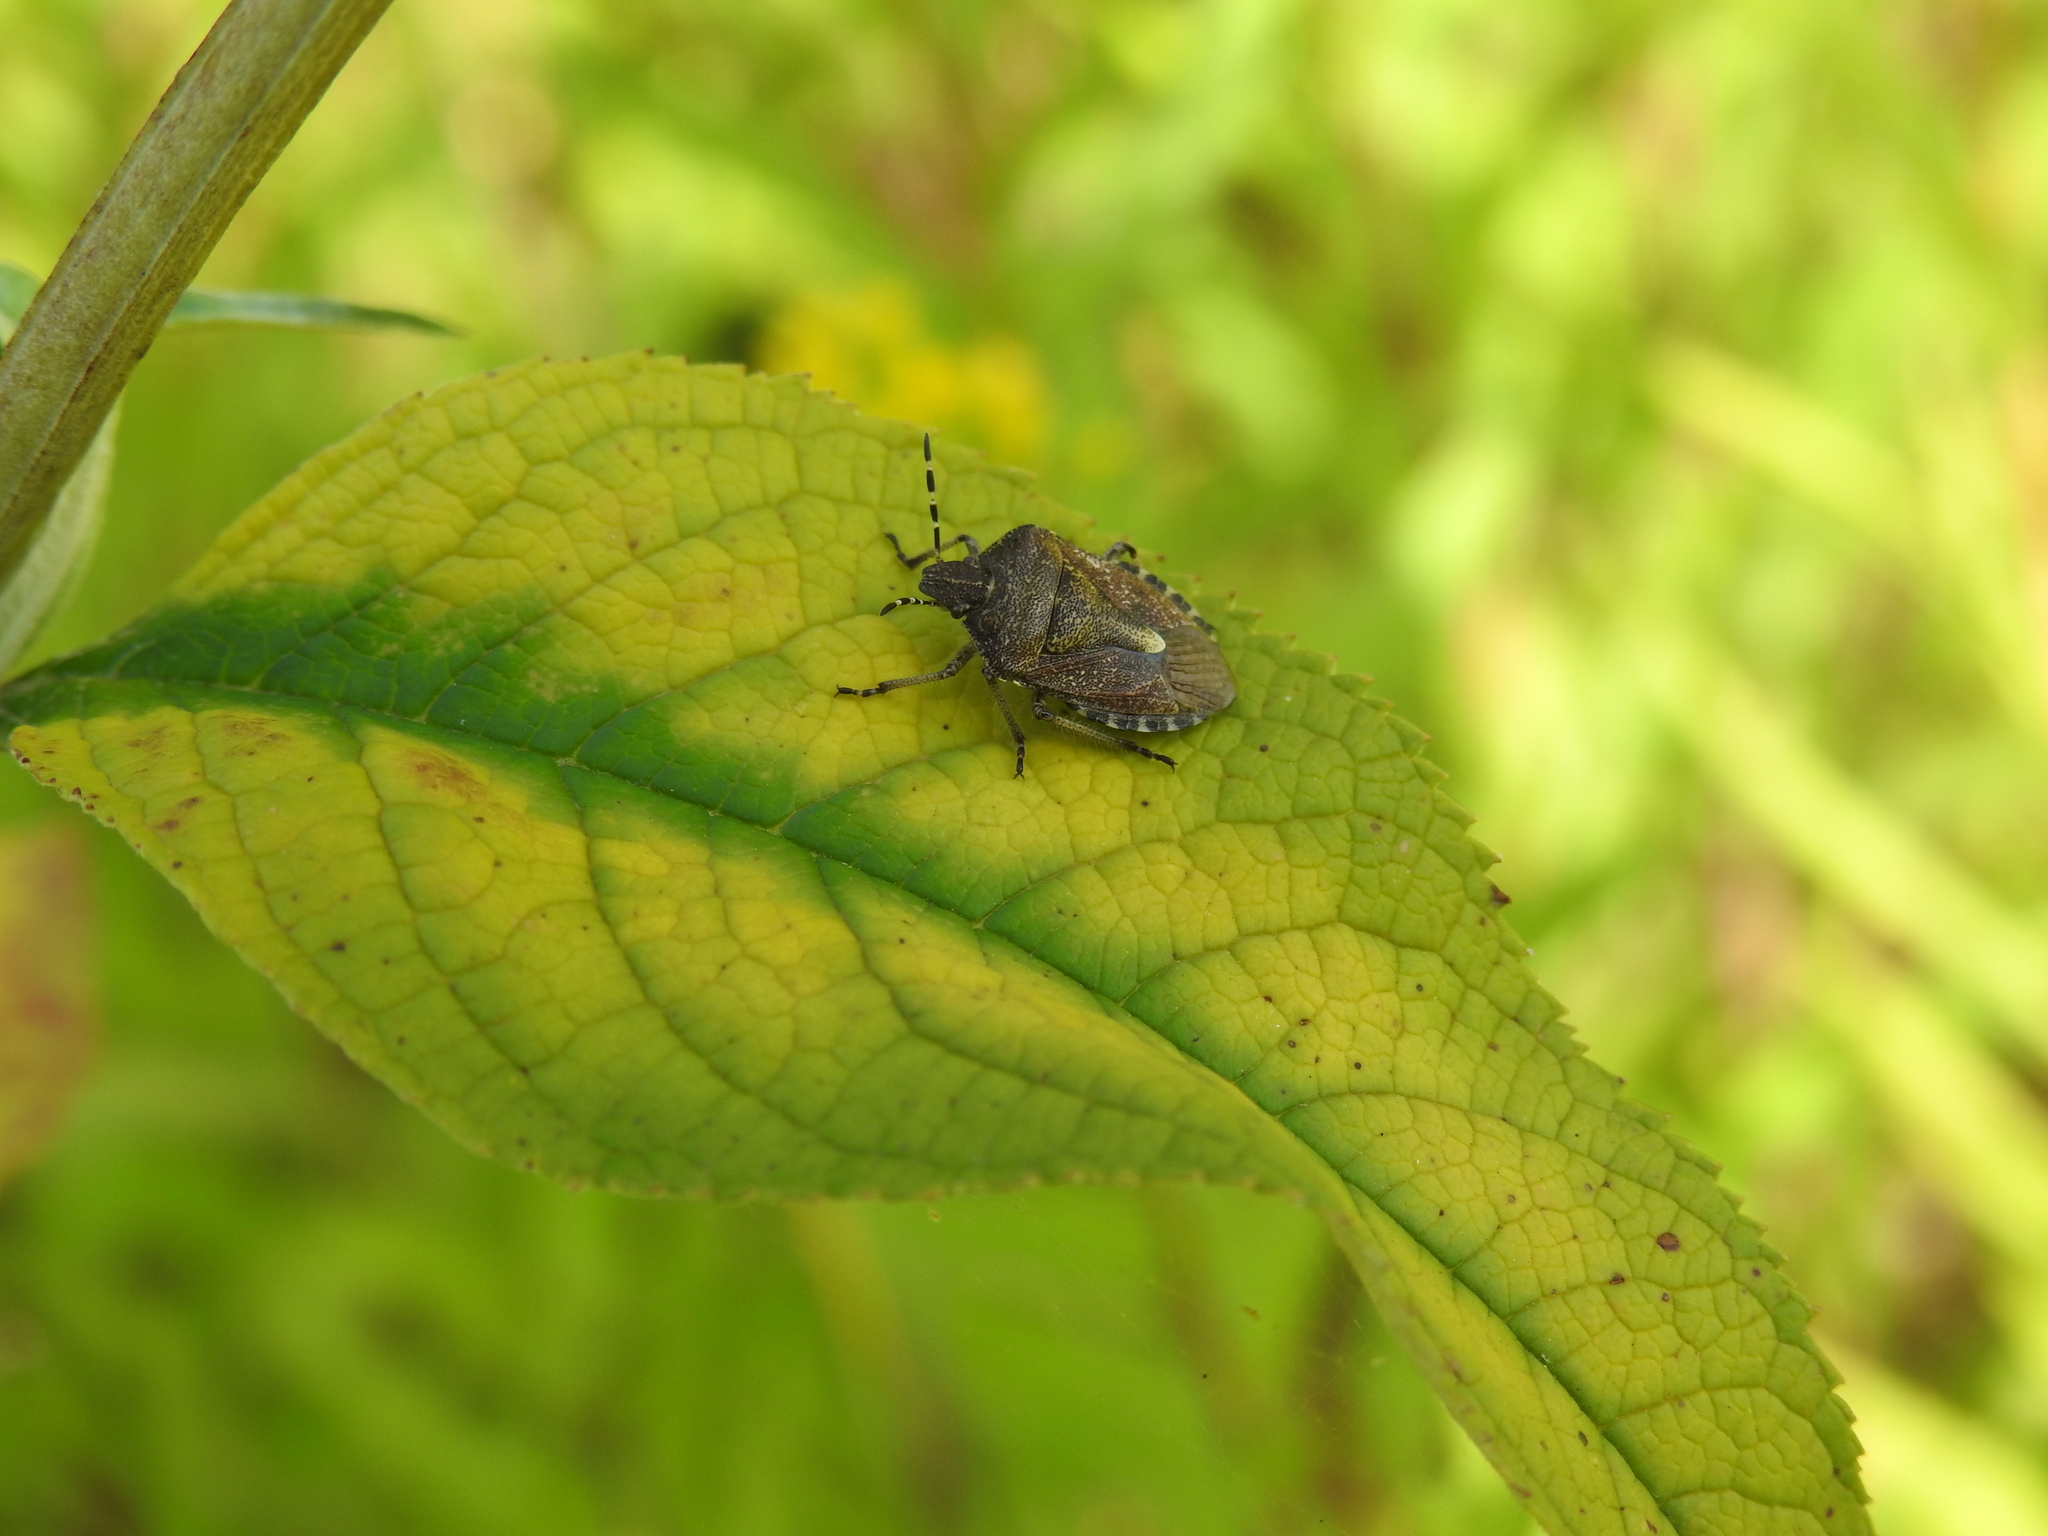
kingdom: Animalia
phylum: Arthropoda
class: Insecta
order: Hemiptera
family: Pentatomidae
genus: Dolycoris
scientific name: Dolycoris baccarum
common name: Sloe bug
